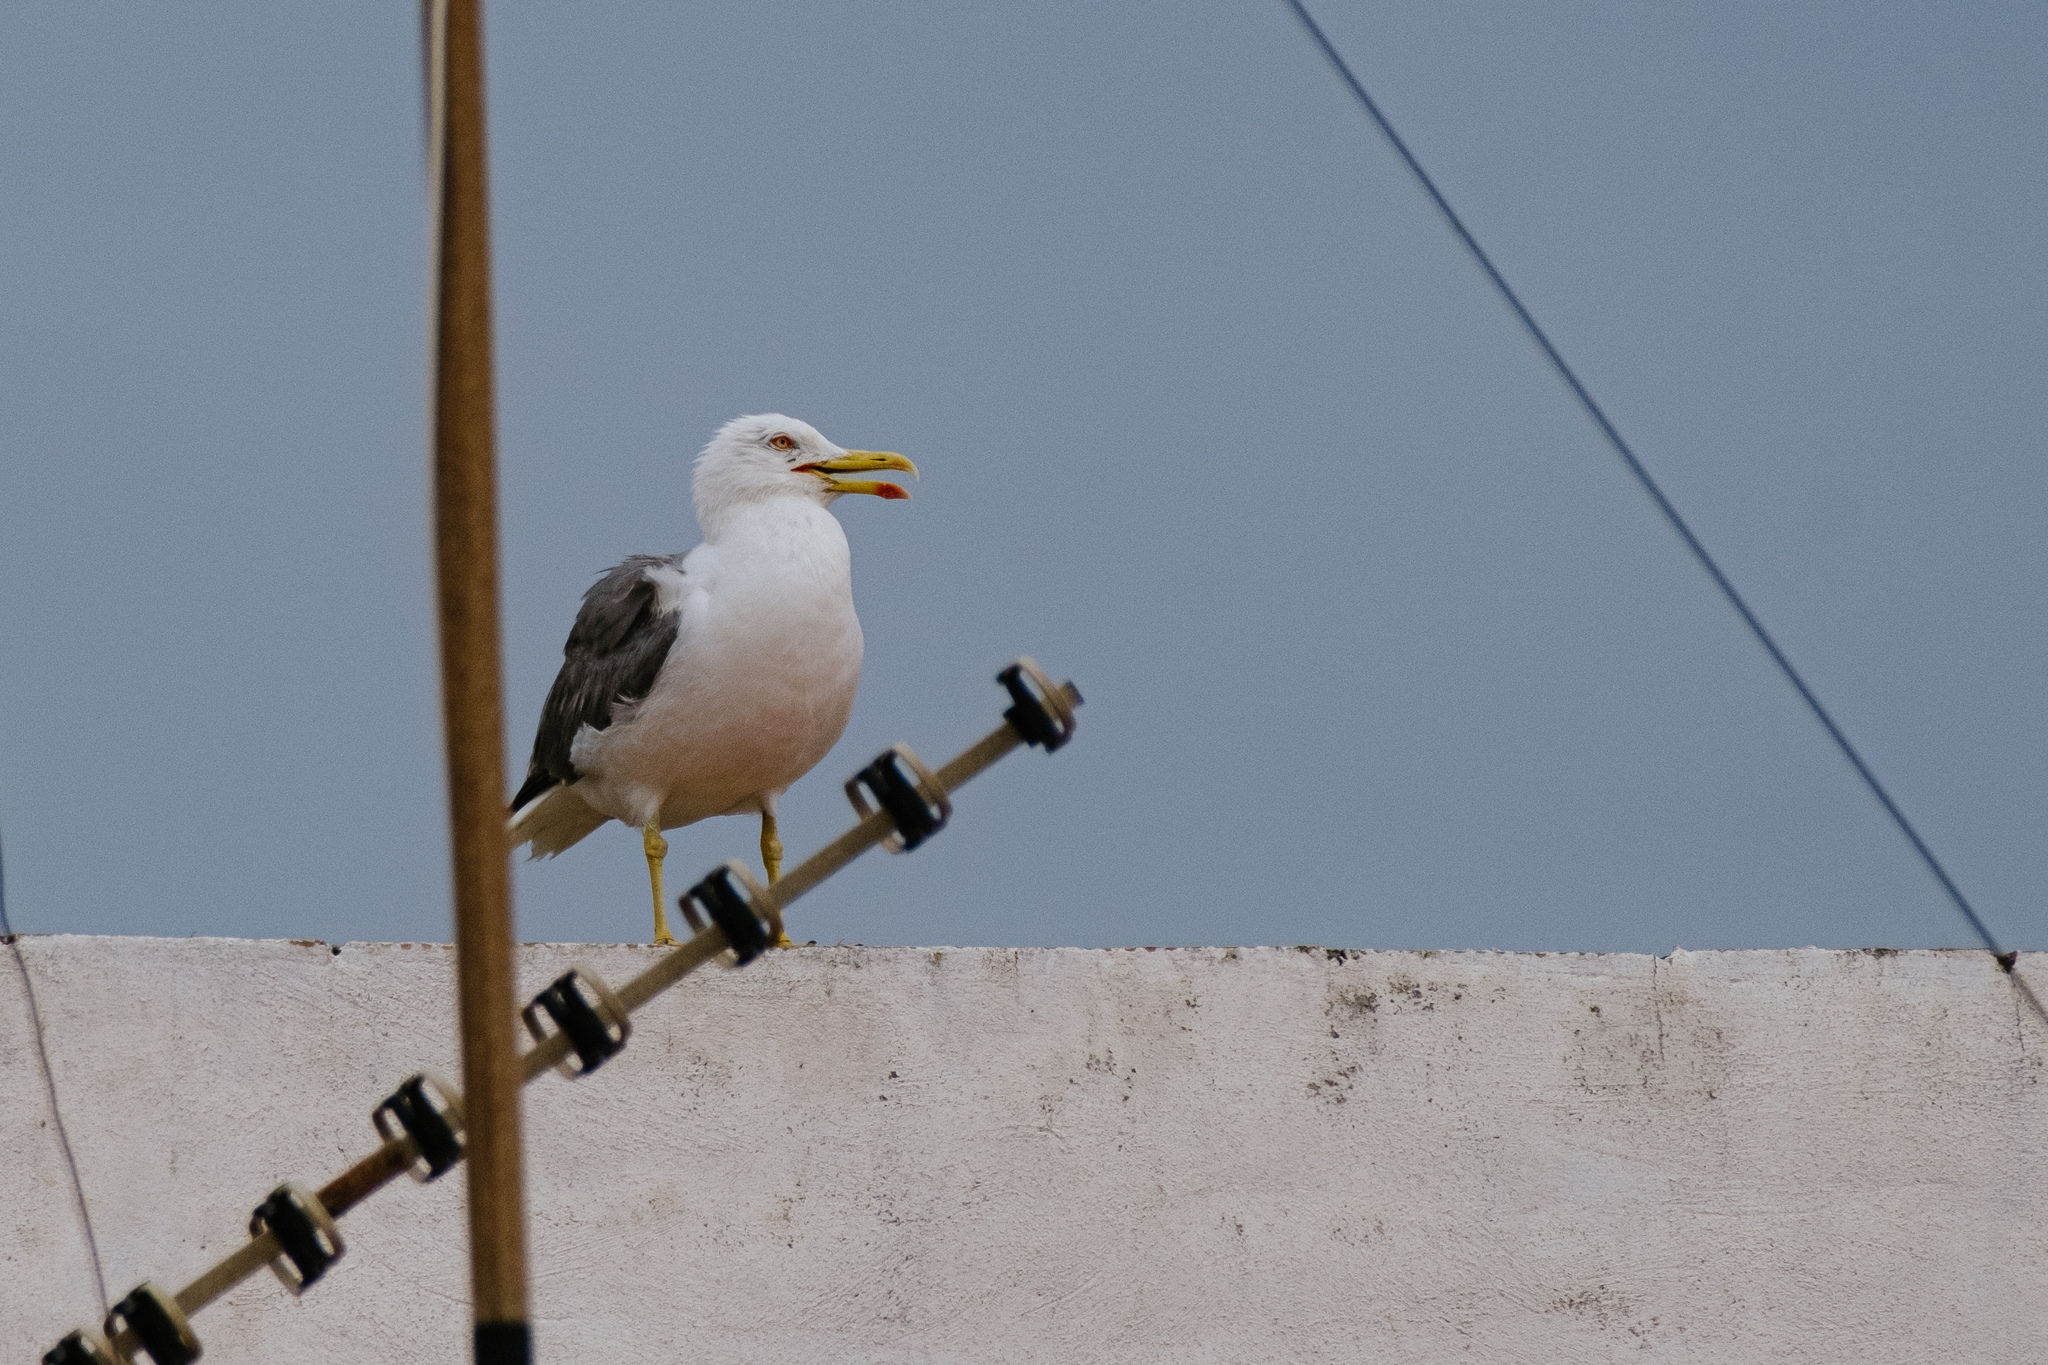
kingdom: Animalia
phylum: Chordata
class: Aves
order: Charadriiformes
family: Laridae
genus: Larus
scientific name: Larus fuscus
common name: Lesser black-backed gull
